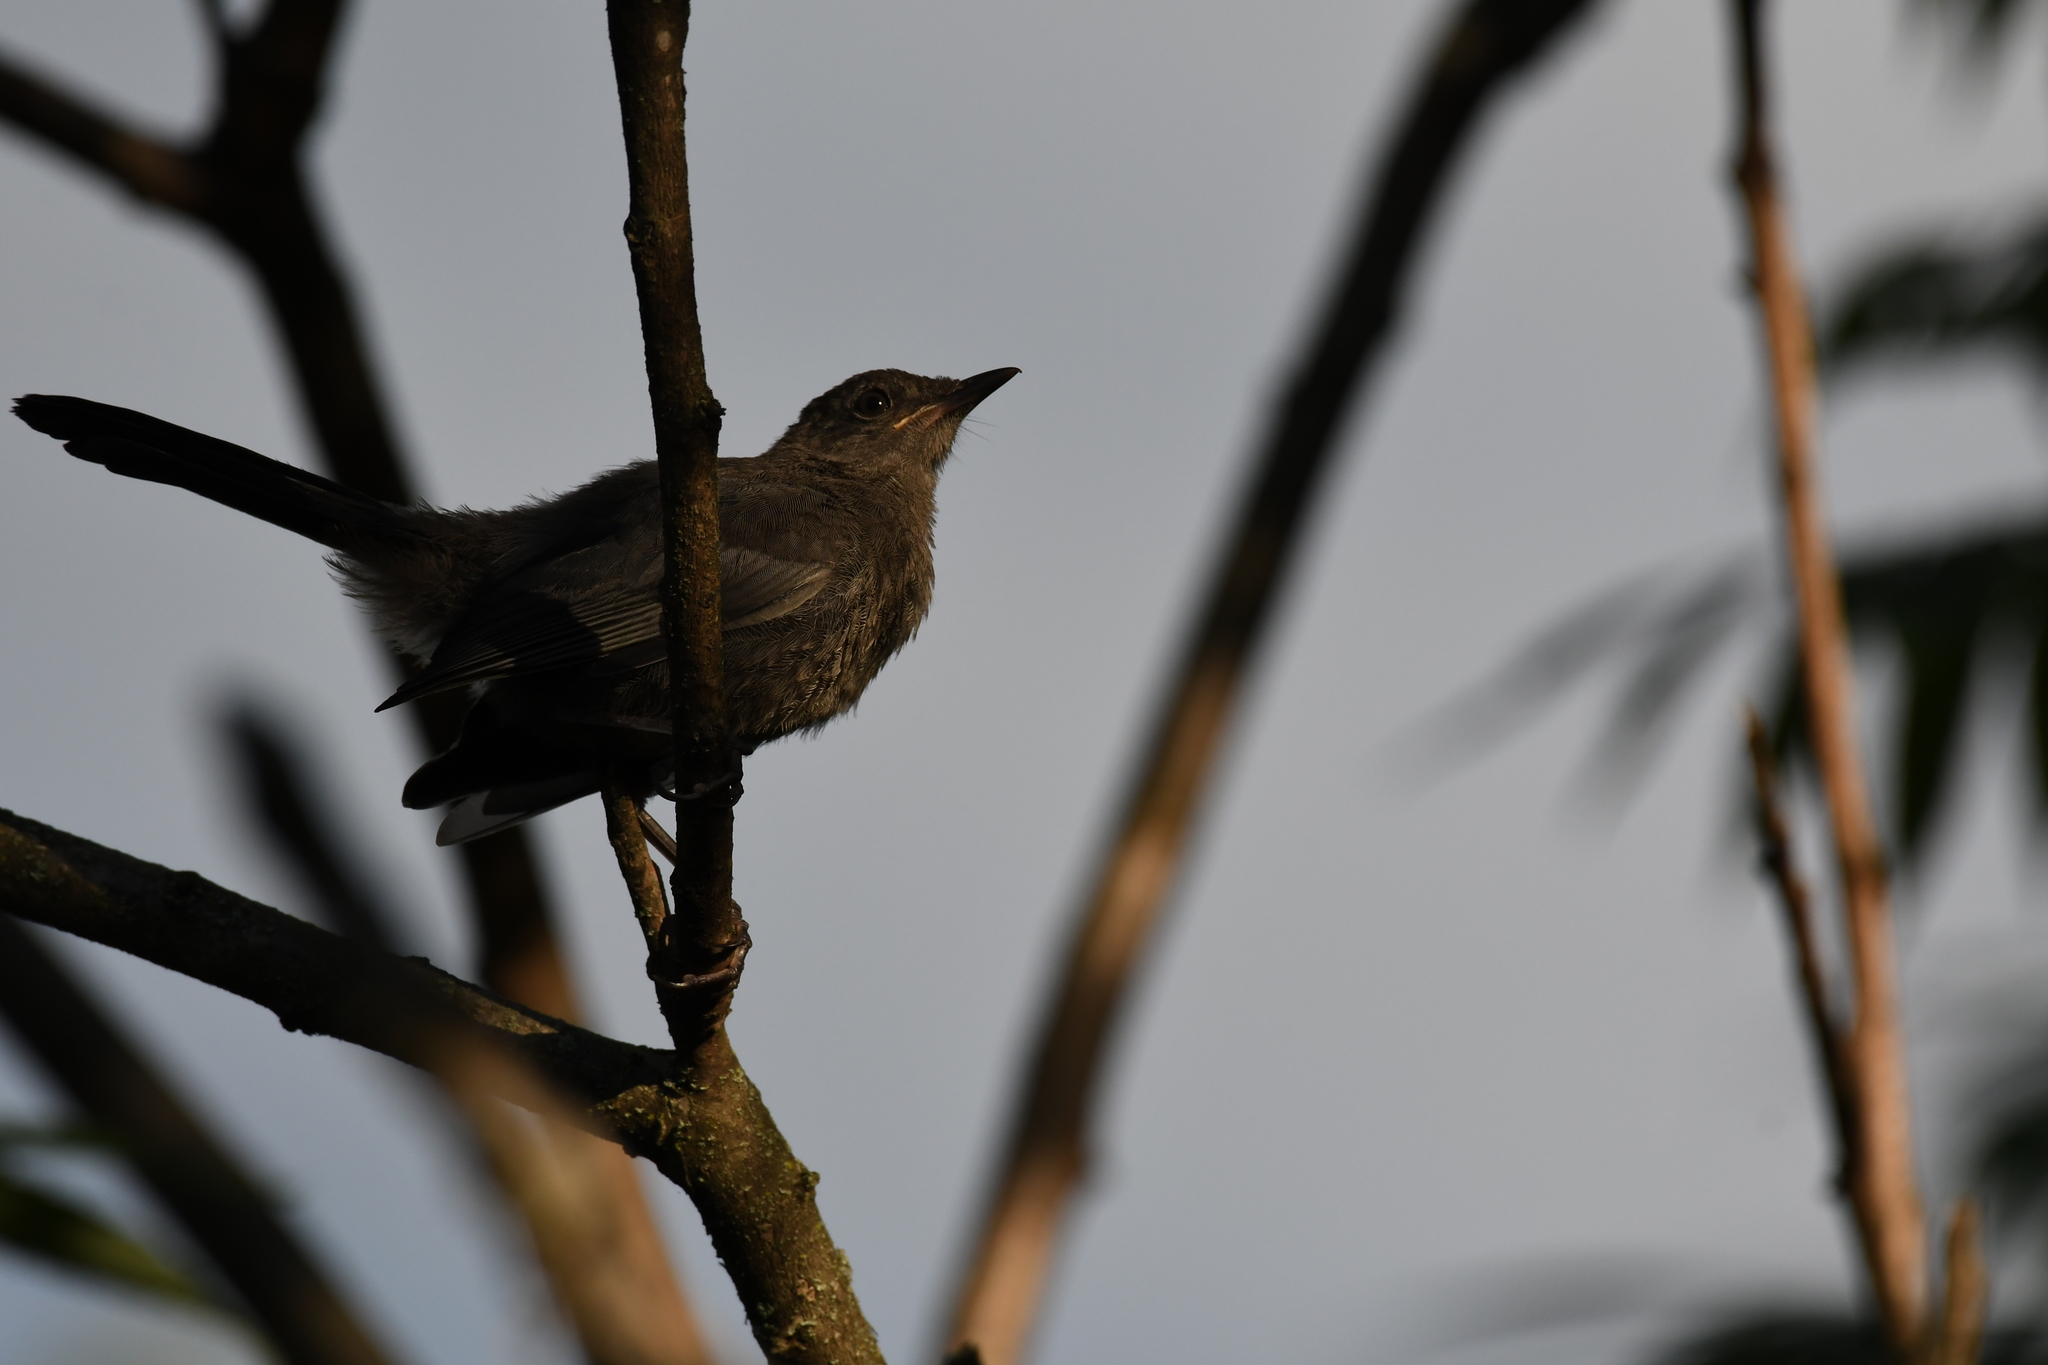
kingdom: Animalia
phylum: Chordata
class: Aves
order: Passeriformes
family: Mimidae
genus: Dumetella
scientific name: Dumetella carolinensis
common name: Gray catbird
